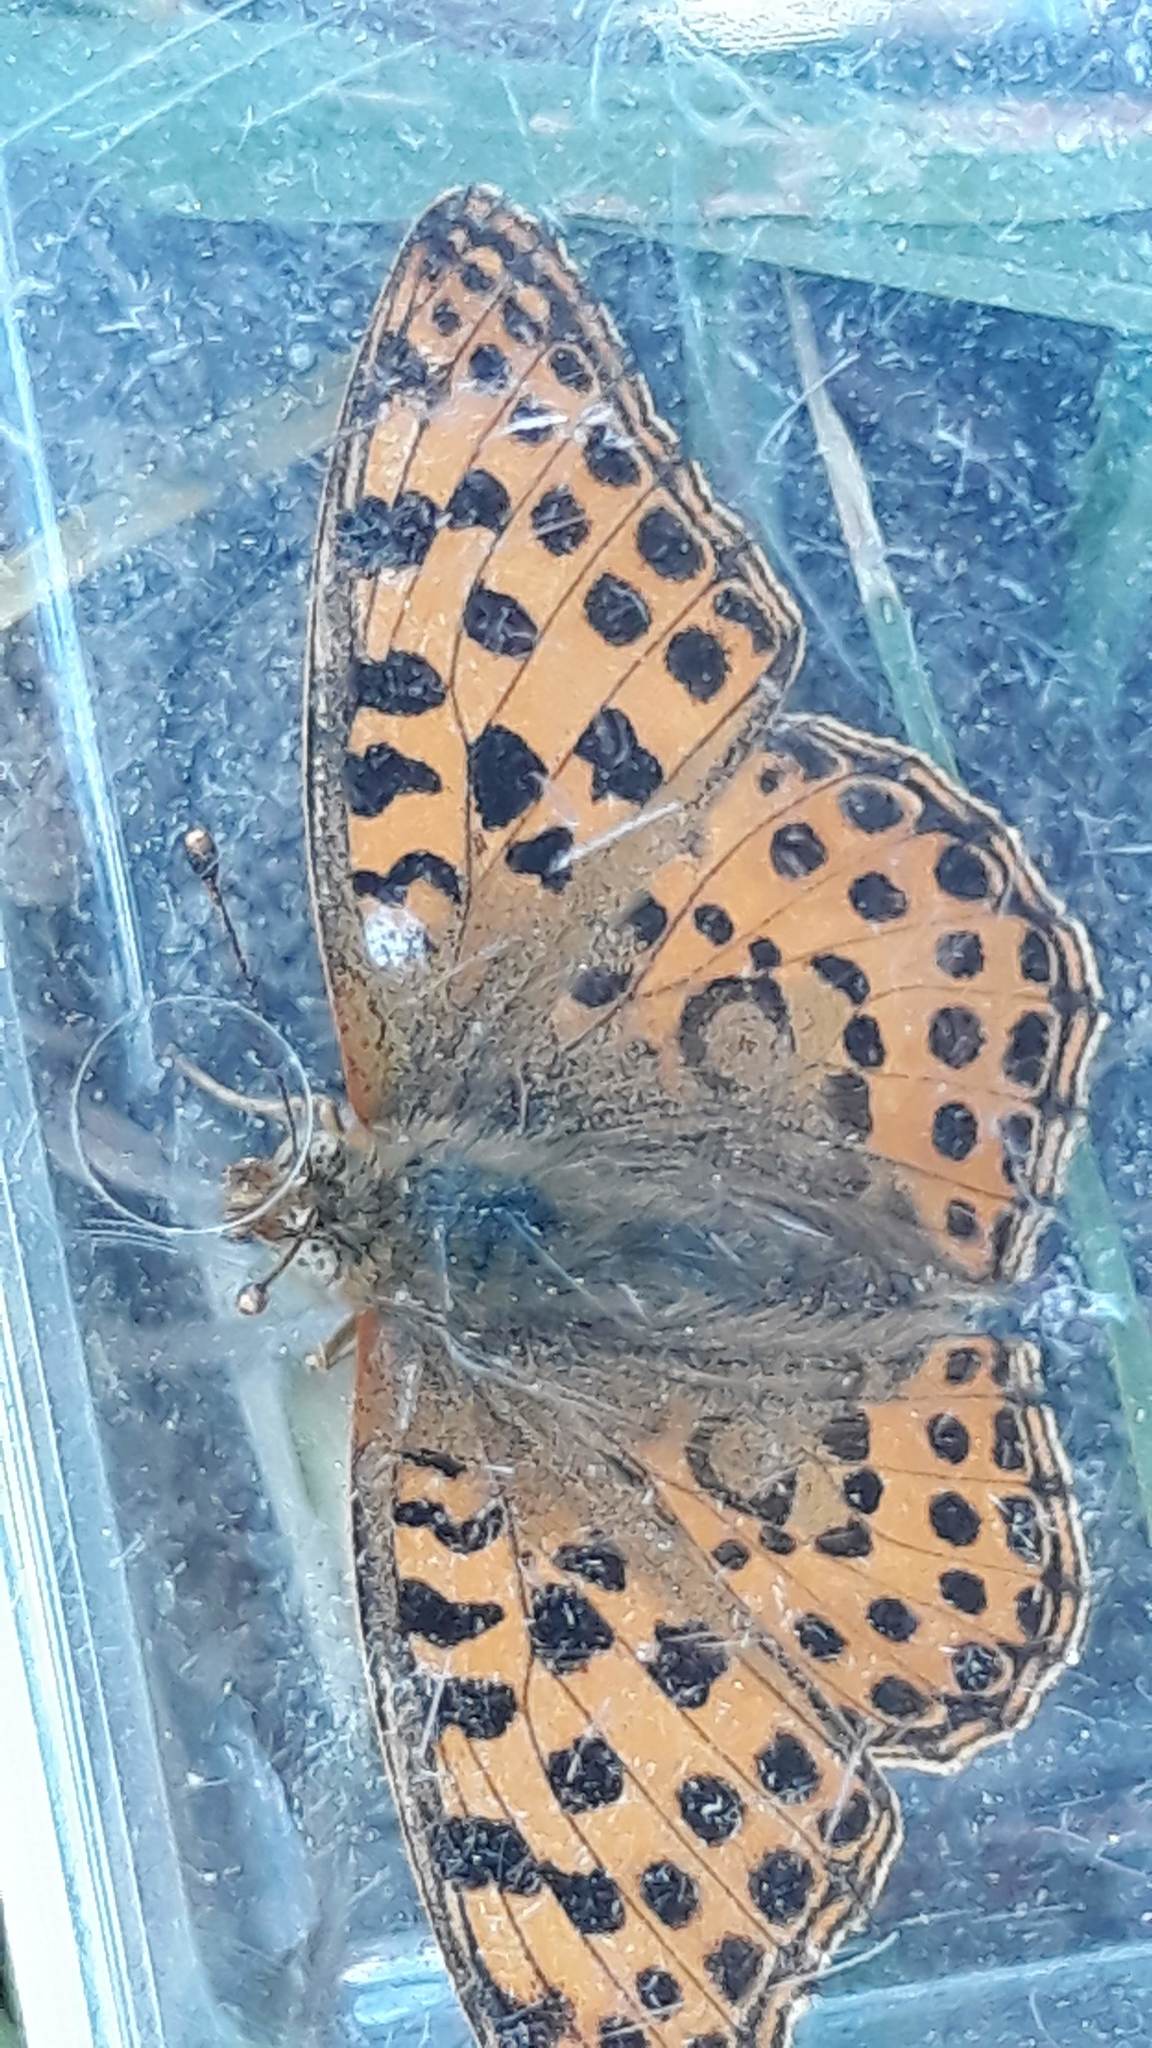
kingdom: Animalia
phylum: Arthropoda
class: Insecta
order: Lepidoptera
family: Nymphalidae
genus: Issoria
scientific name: Issoria lathonia
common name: Queen of spain fritillary
